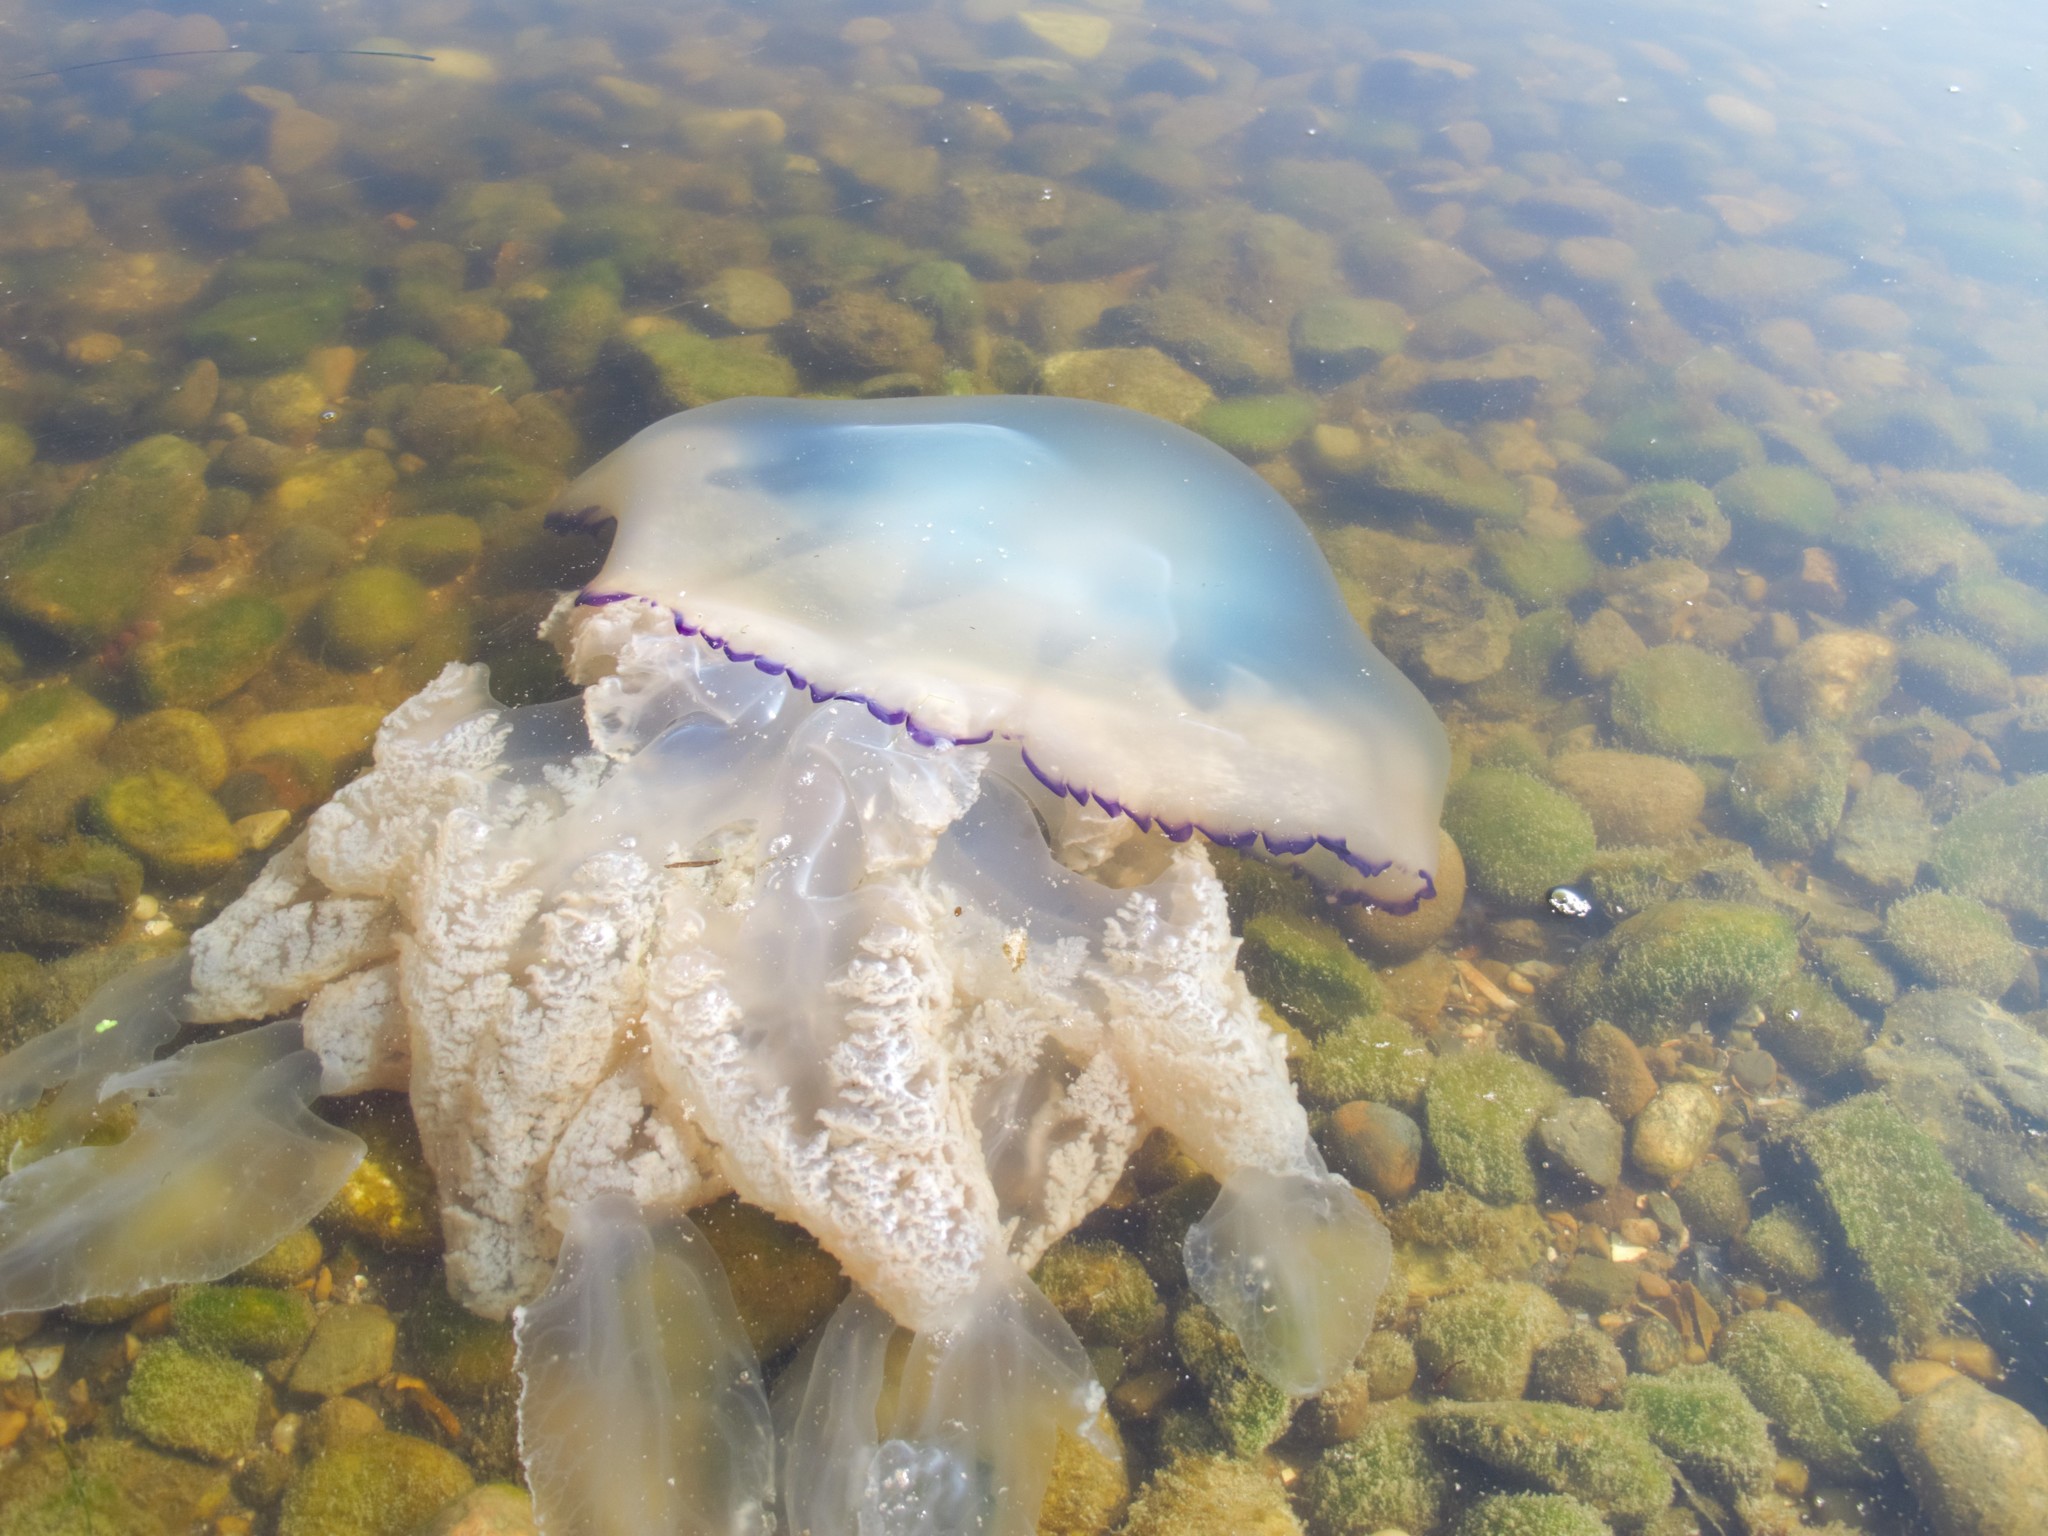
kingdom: Animalia
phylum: Cnidaria
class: Scyphozoa
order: Rhizostomeae
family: Rhizostomatidae
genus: Rhizostoma
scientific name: Rhizostoma octopus
